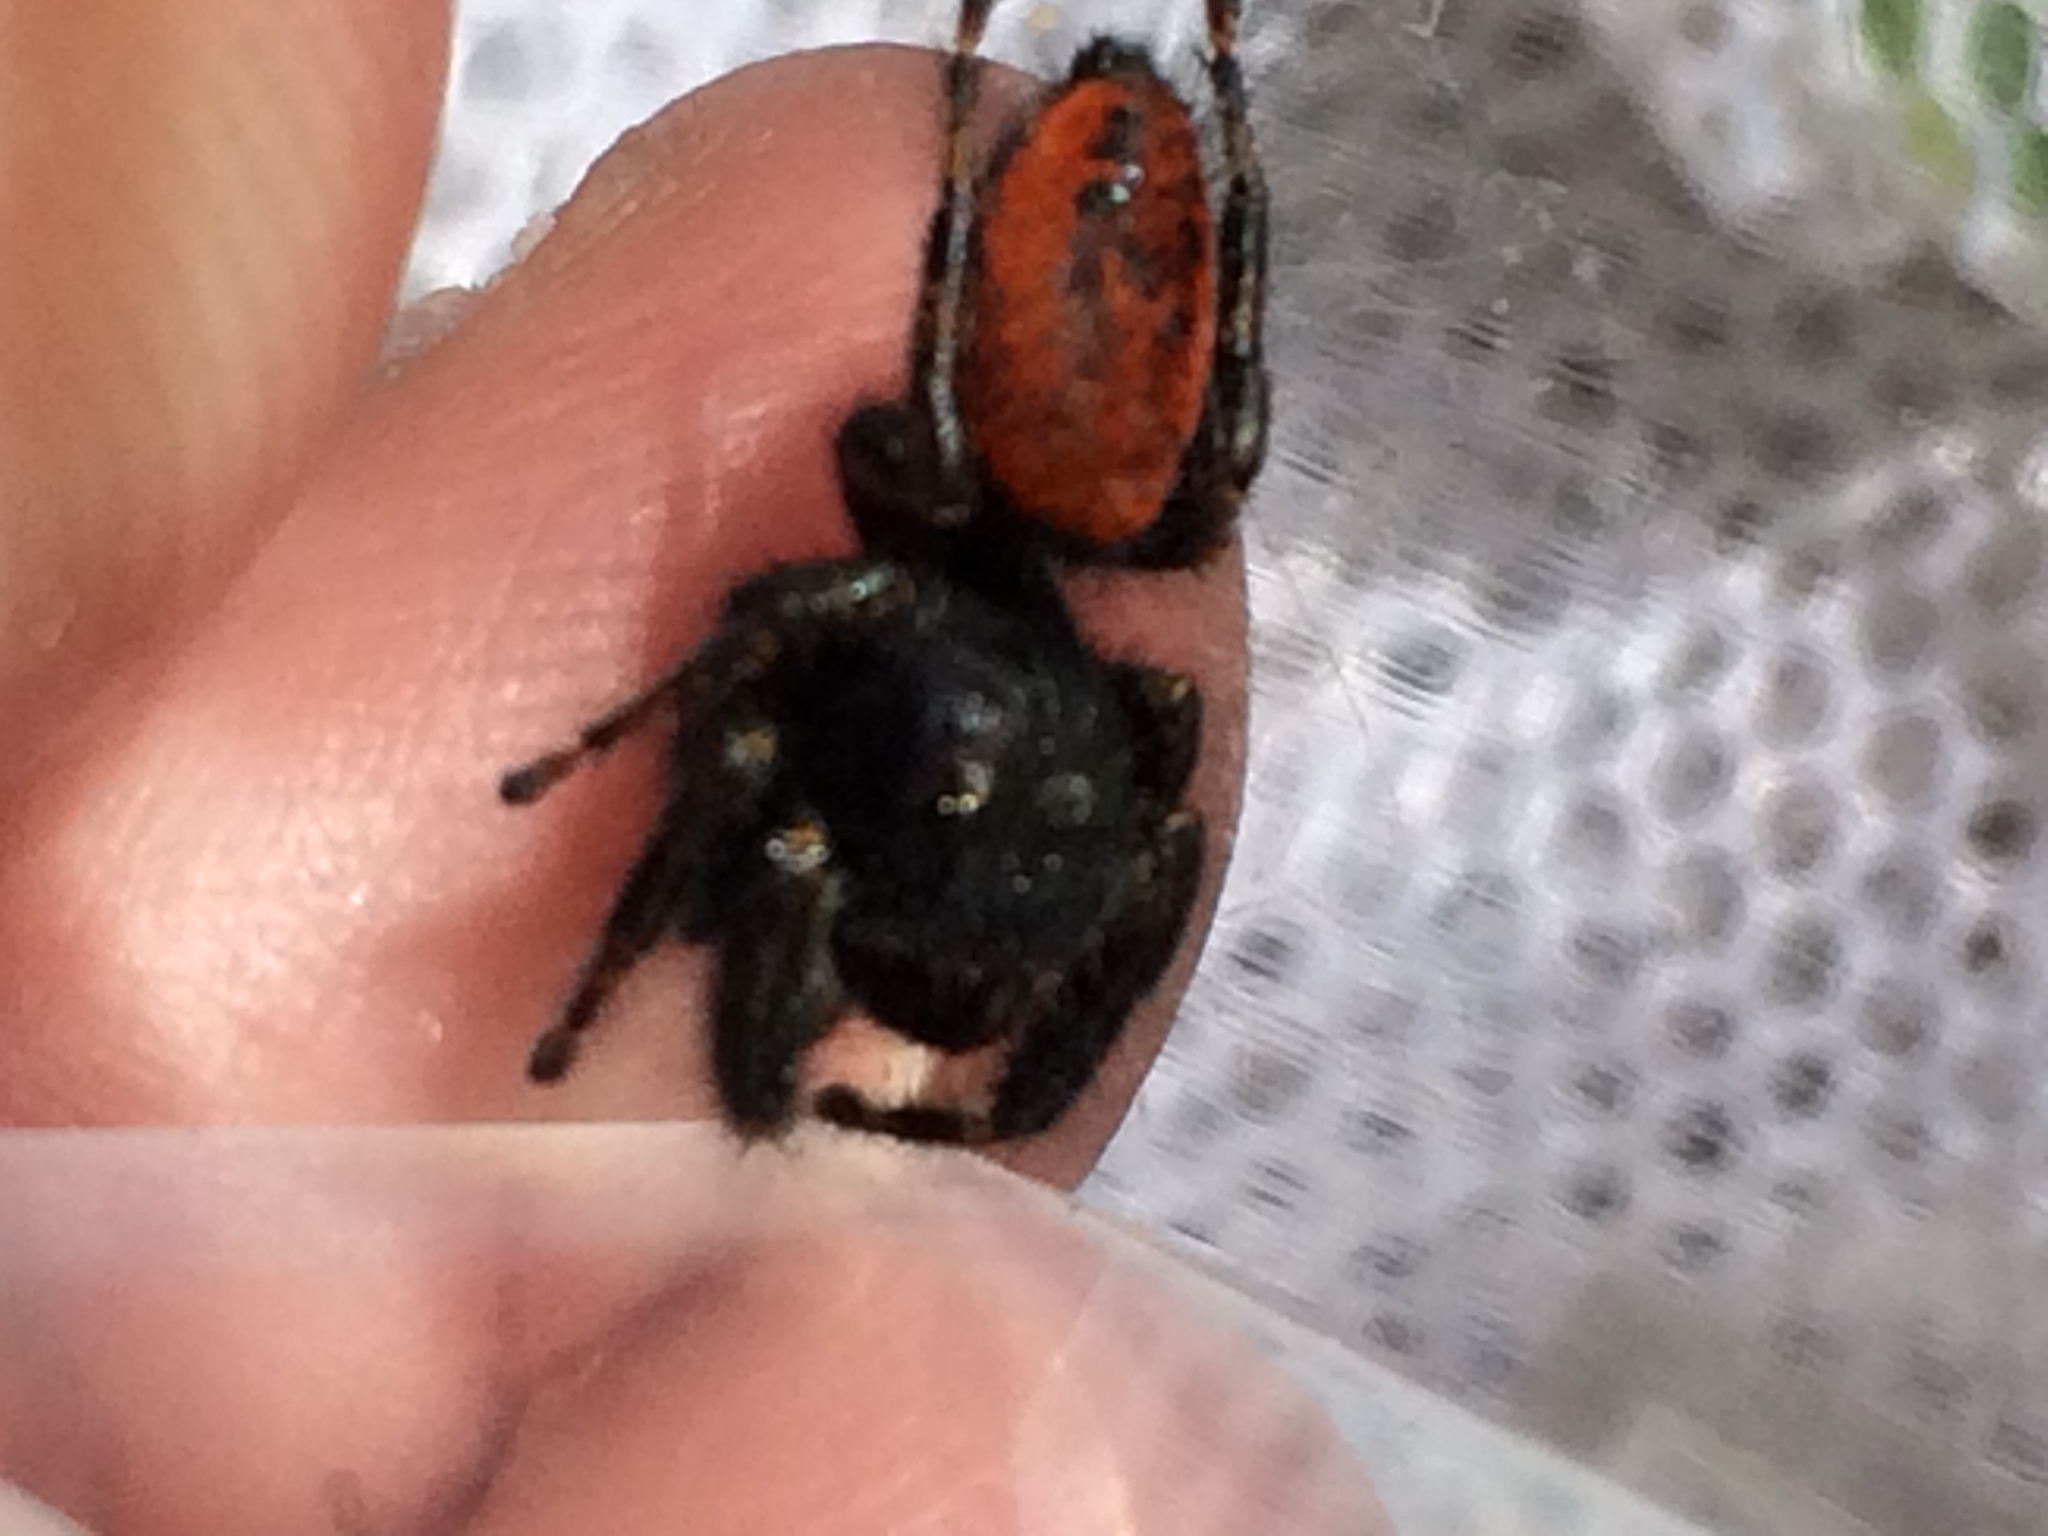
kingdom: Animalia
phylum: Arthropoda
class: Arachnida
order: Araneae
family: Salticidae
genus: Phidippus
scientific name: Phidippus johnsoni
